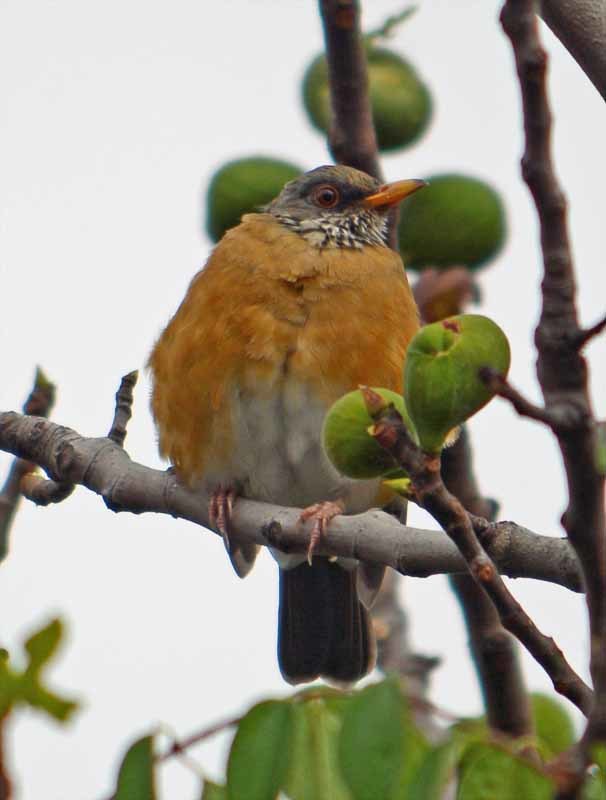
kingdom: Animalia
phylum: Chordata
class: Aves
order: Passeriformes
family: Turdidae
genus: Turdus
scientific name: Turdus rufopalliatus
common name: Rufous-backed robin
